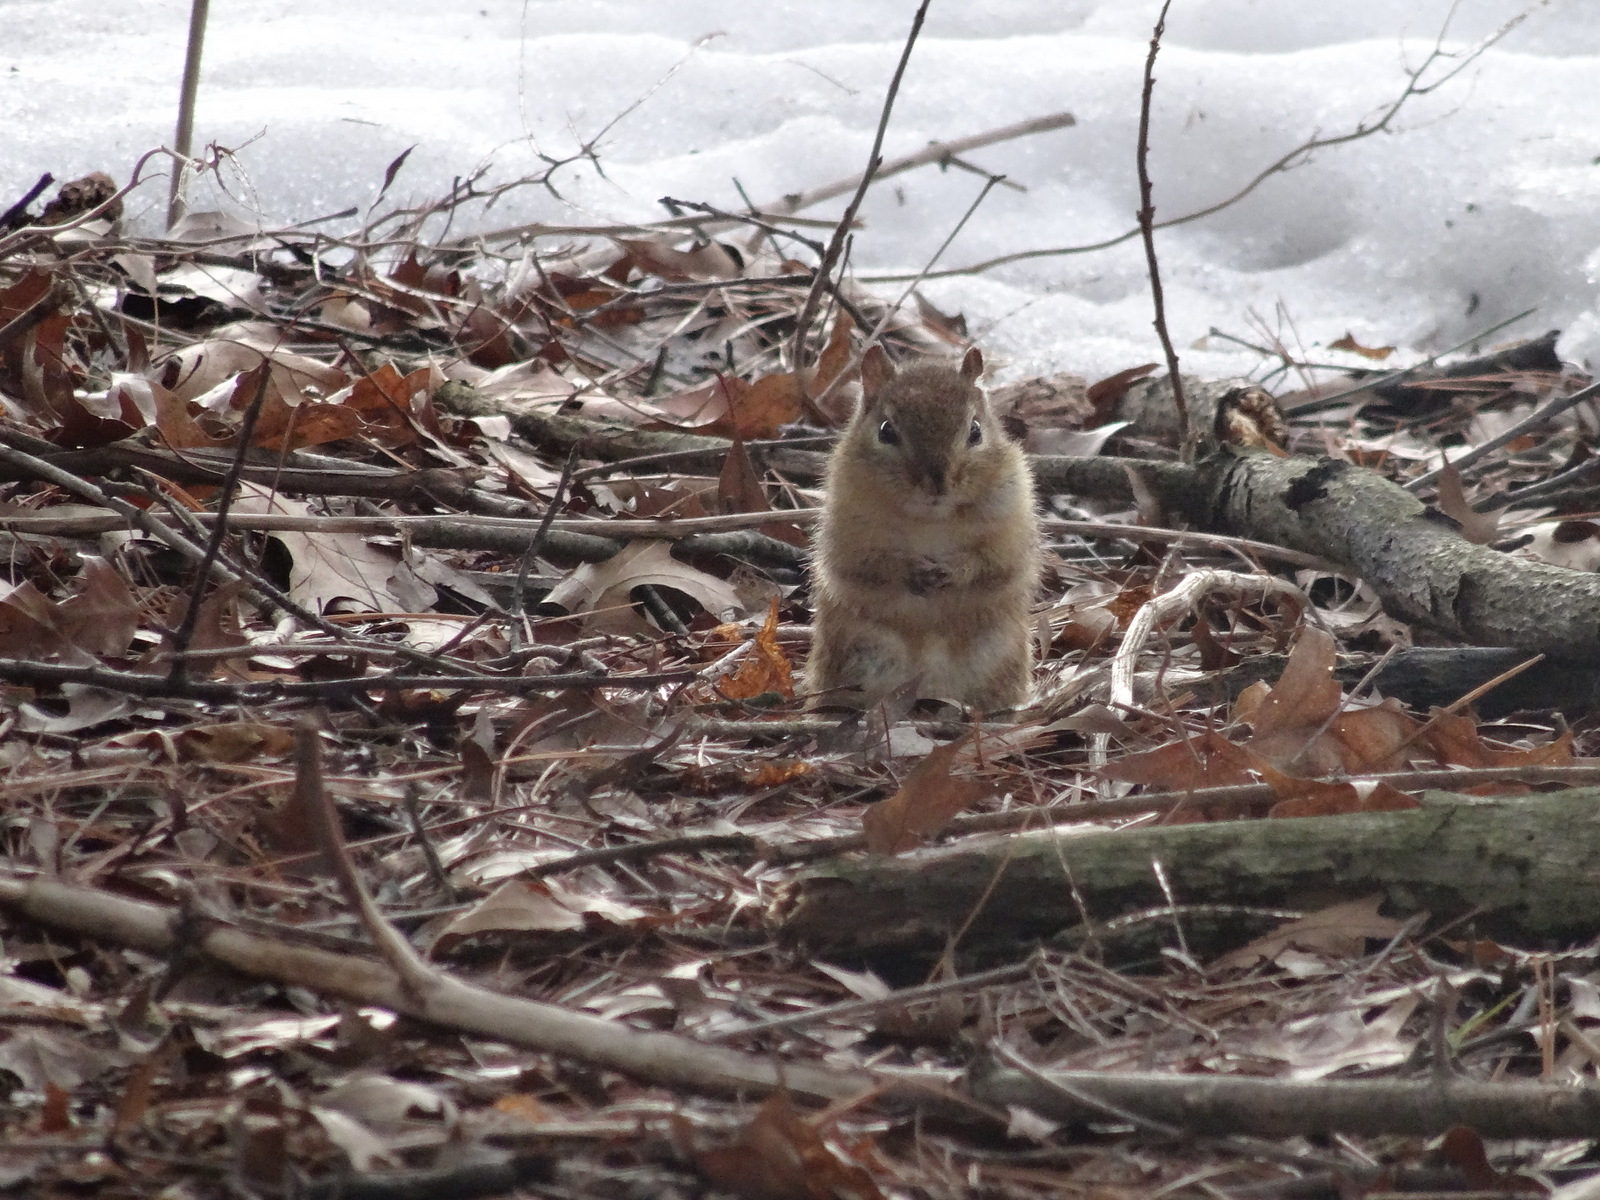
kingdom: Animalia
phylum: Chordata
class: Mammalia
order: Rodentia
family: Sciuridae
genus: Tamias
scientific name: Tamias striatus
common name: Eastern chipmunk
